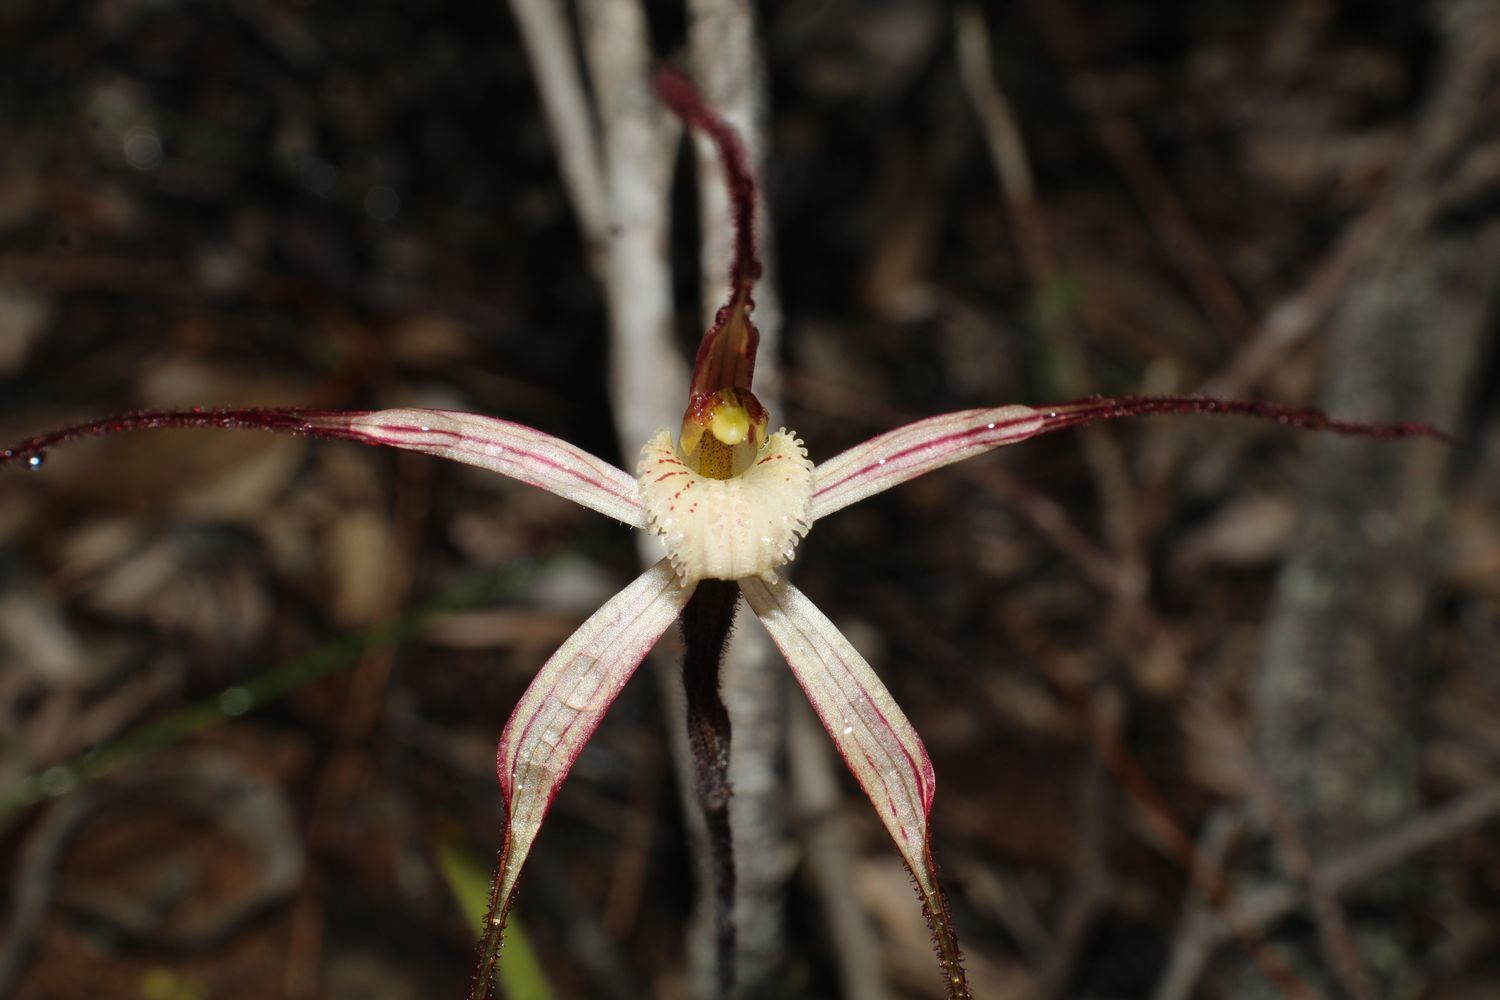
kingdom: Plantae
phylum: Tracheophyta
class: Liliopsida
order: Asparagales
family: Orchidaceae
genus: Caladenia
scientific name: Caladenia polychroma
